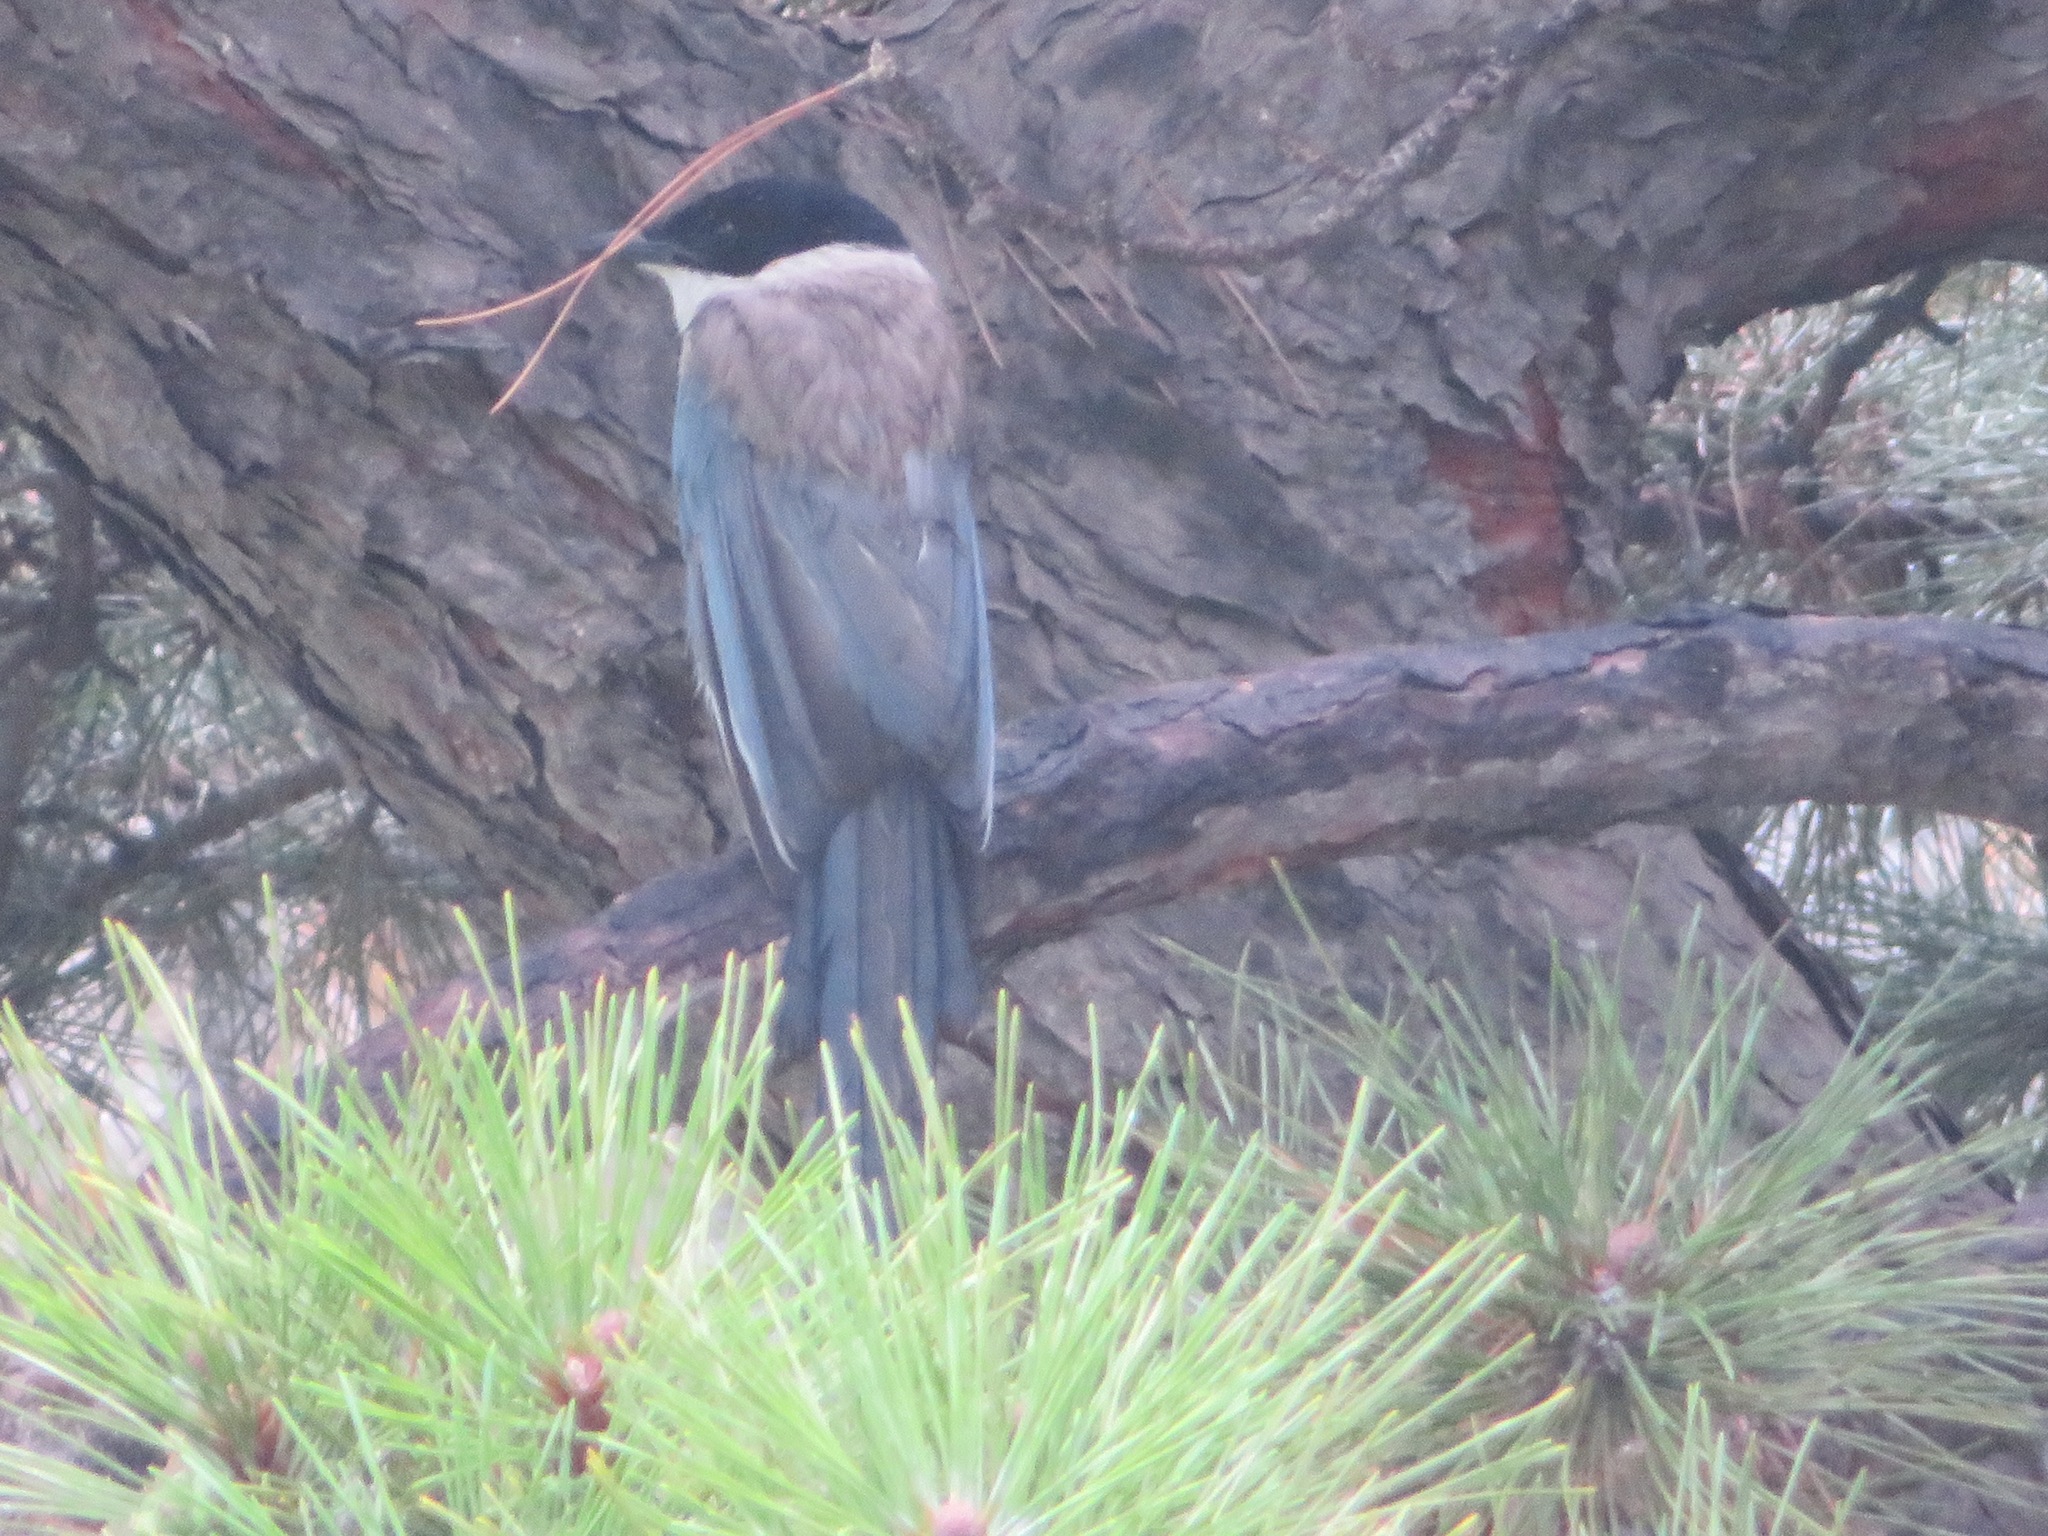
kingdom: Animalia
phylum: Chordata
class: Aves
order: Passeriformes
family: Corvidae
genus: Cyanopica
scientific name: Cyanopica cyanus
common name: Azure-winged magpie
